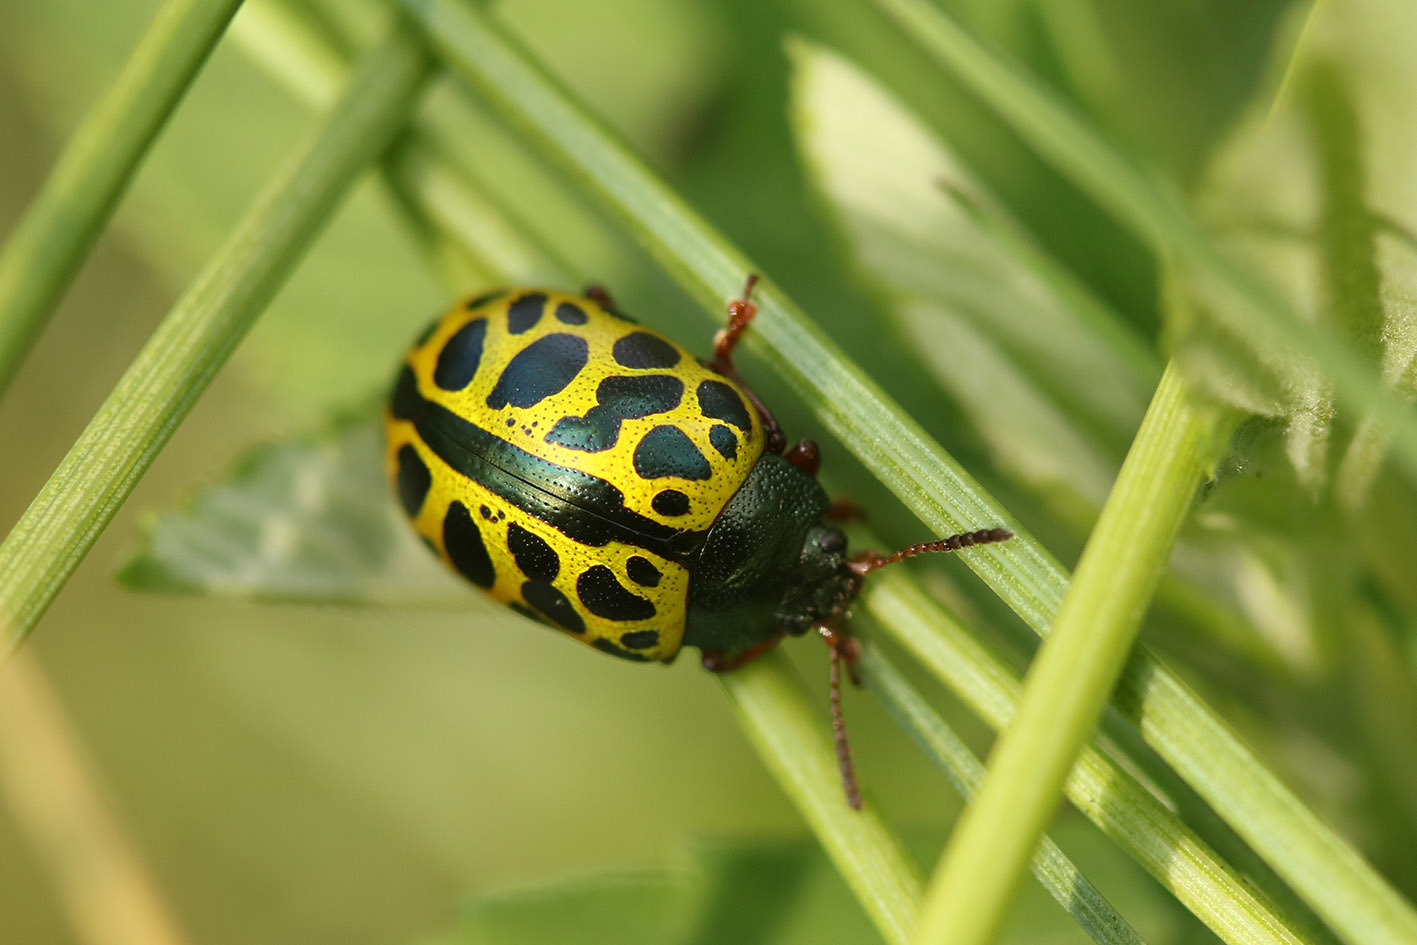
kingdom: Animalia
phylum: Arthropoda
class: Insecta
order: Coleoptera
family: Chrysomelidae
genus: Calligrapha
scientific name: Calligrapha polyspila
